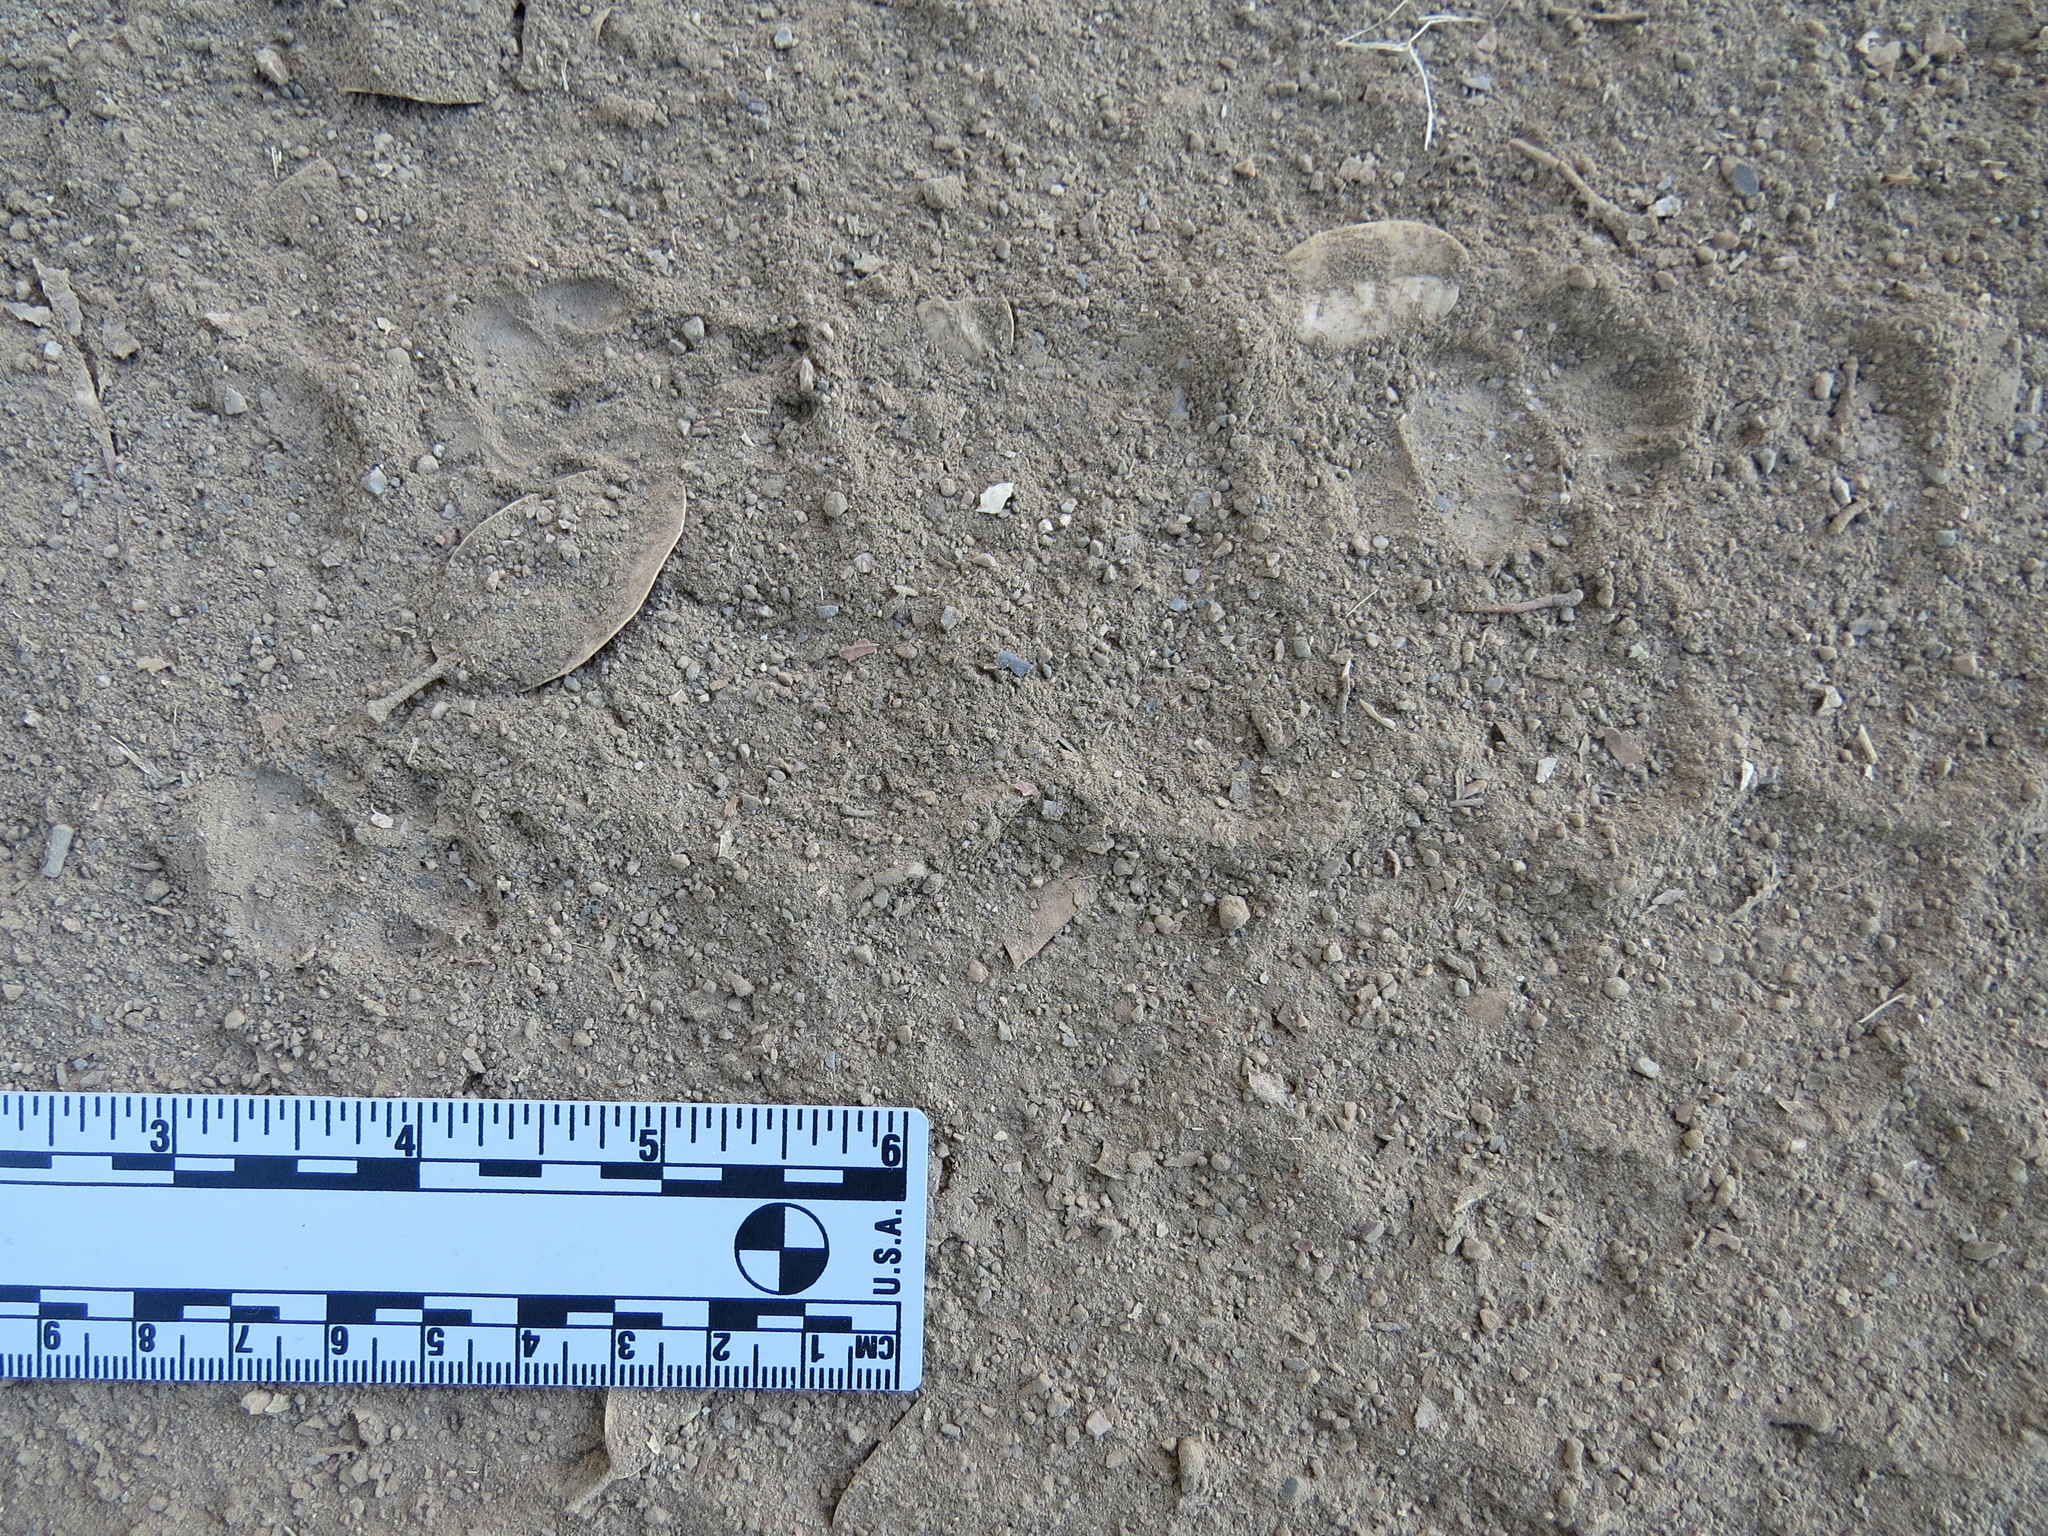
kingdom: Animalia
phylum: Chordata
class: Mammalia
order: Carnivora
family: Mephitidae
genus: Mephitis
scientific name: Mephitis mephitis
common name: Striped skunk
